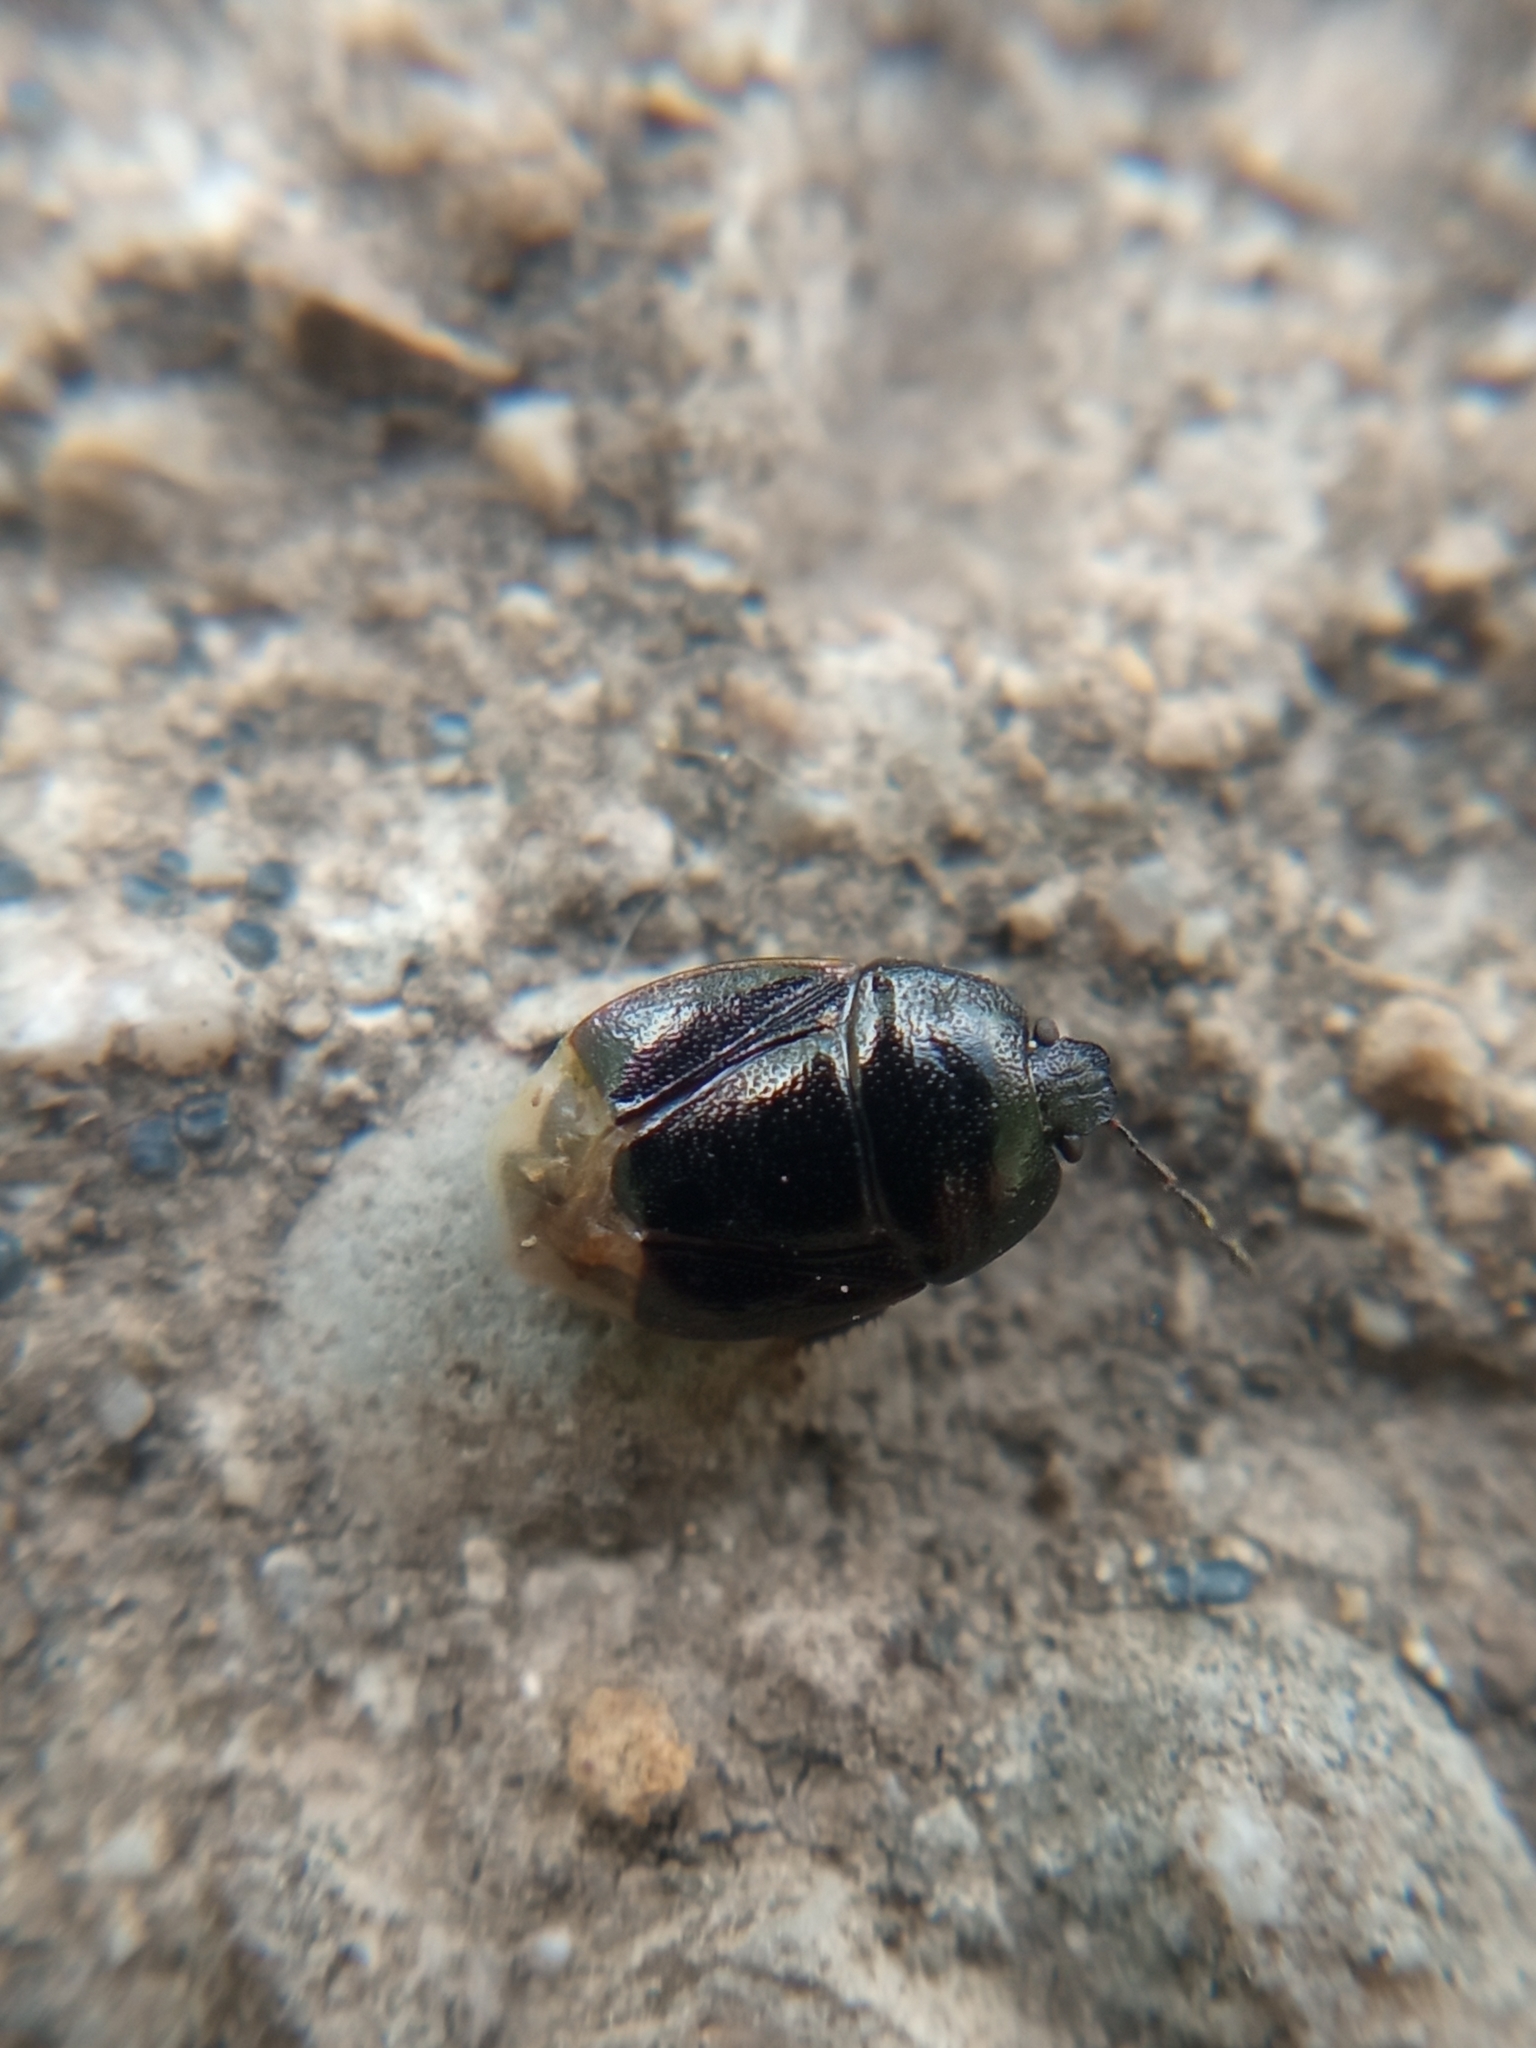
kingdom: Animalia
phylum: Arthropoda
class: Insecta
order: Hemiptera
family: Cydnidae
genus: Legnotus
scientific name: Legnotus picipes
